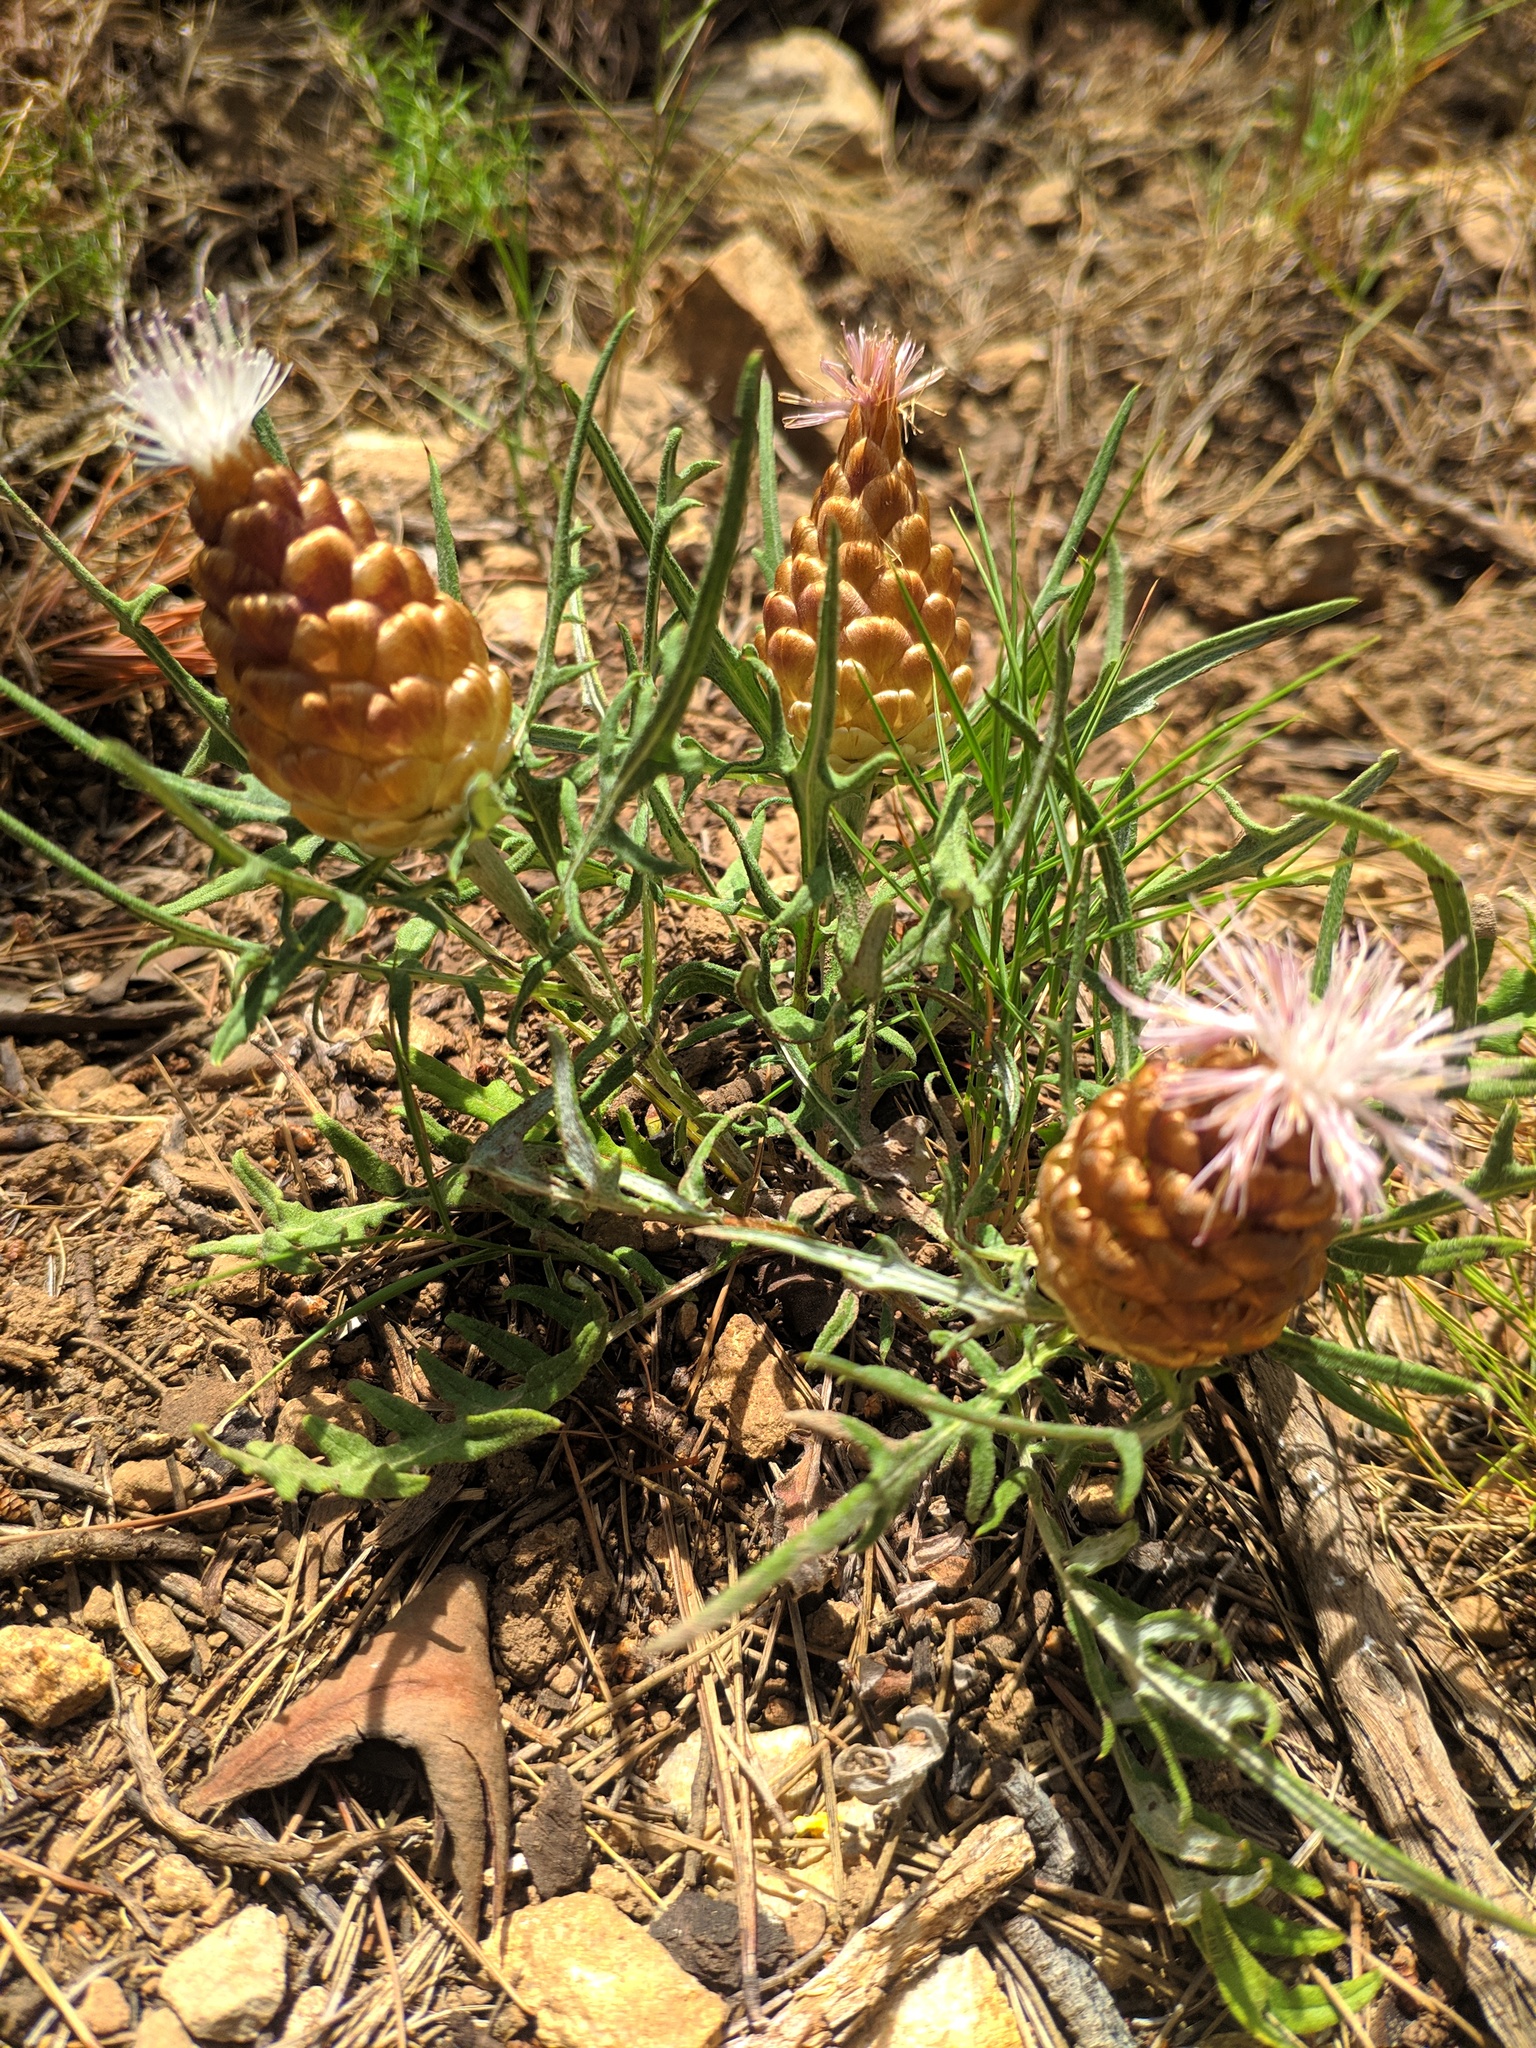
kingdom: Plantae
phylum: Tracheophyta
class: Magnoliopsida
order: Asterales
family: Asteraceae
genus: Leuzea
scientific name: Leuzea conifera
